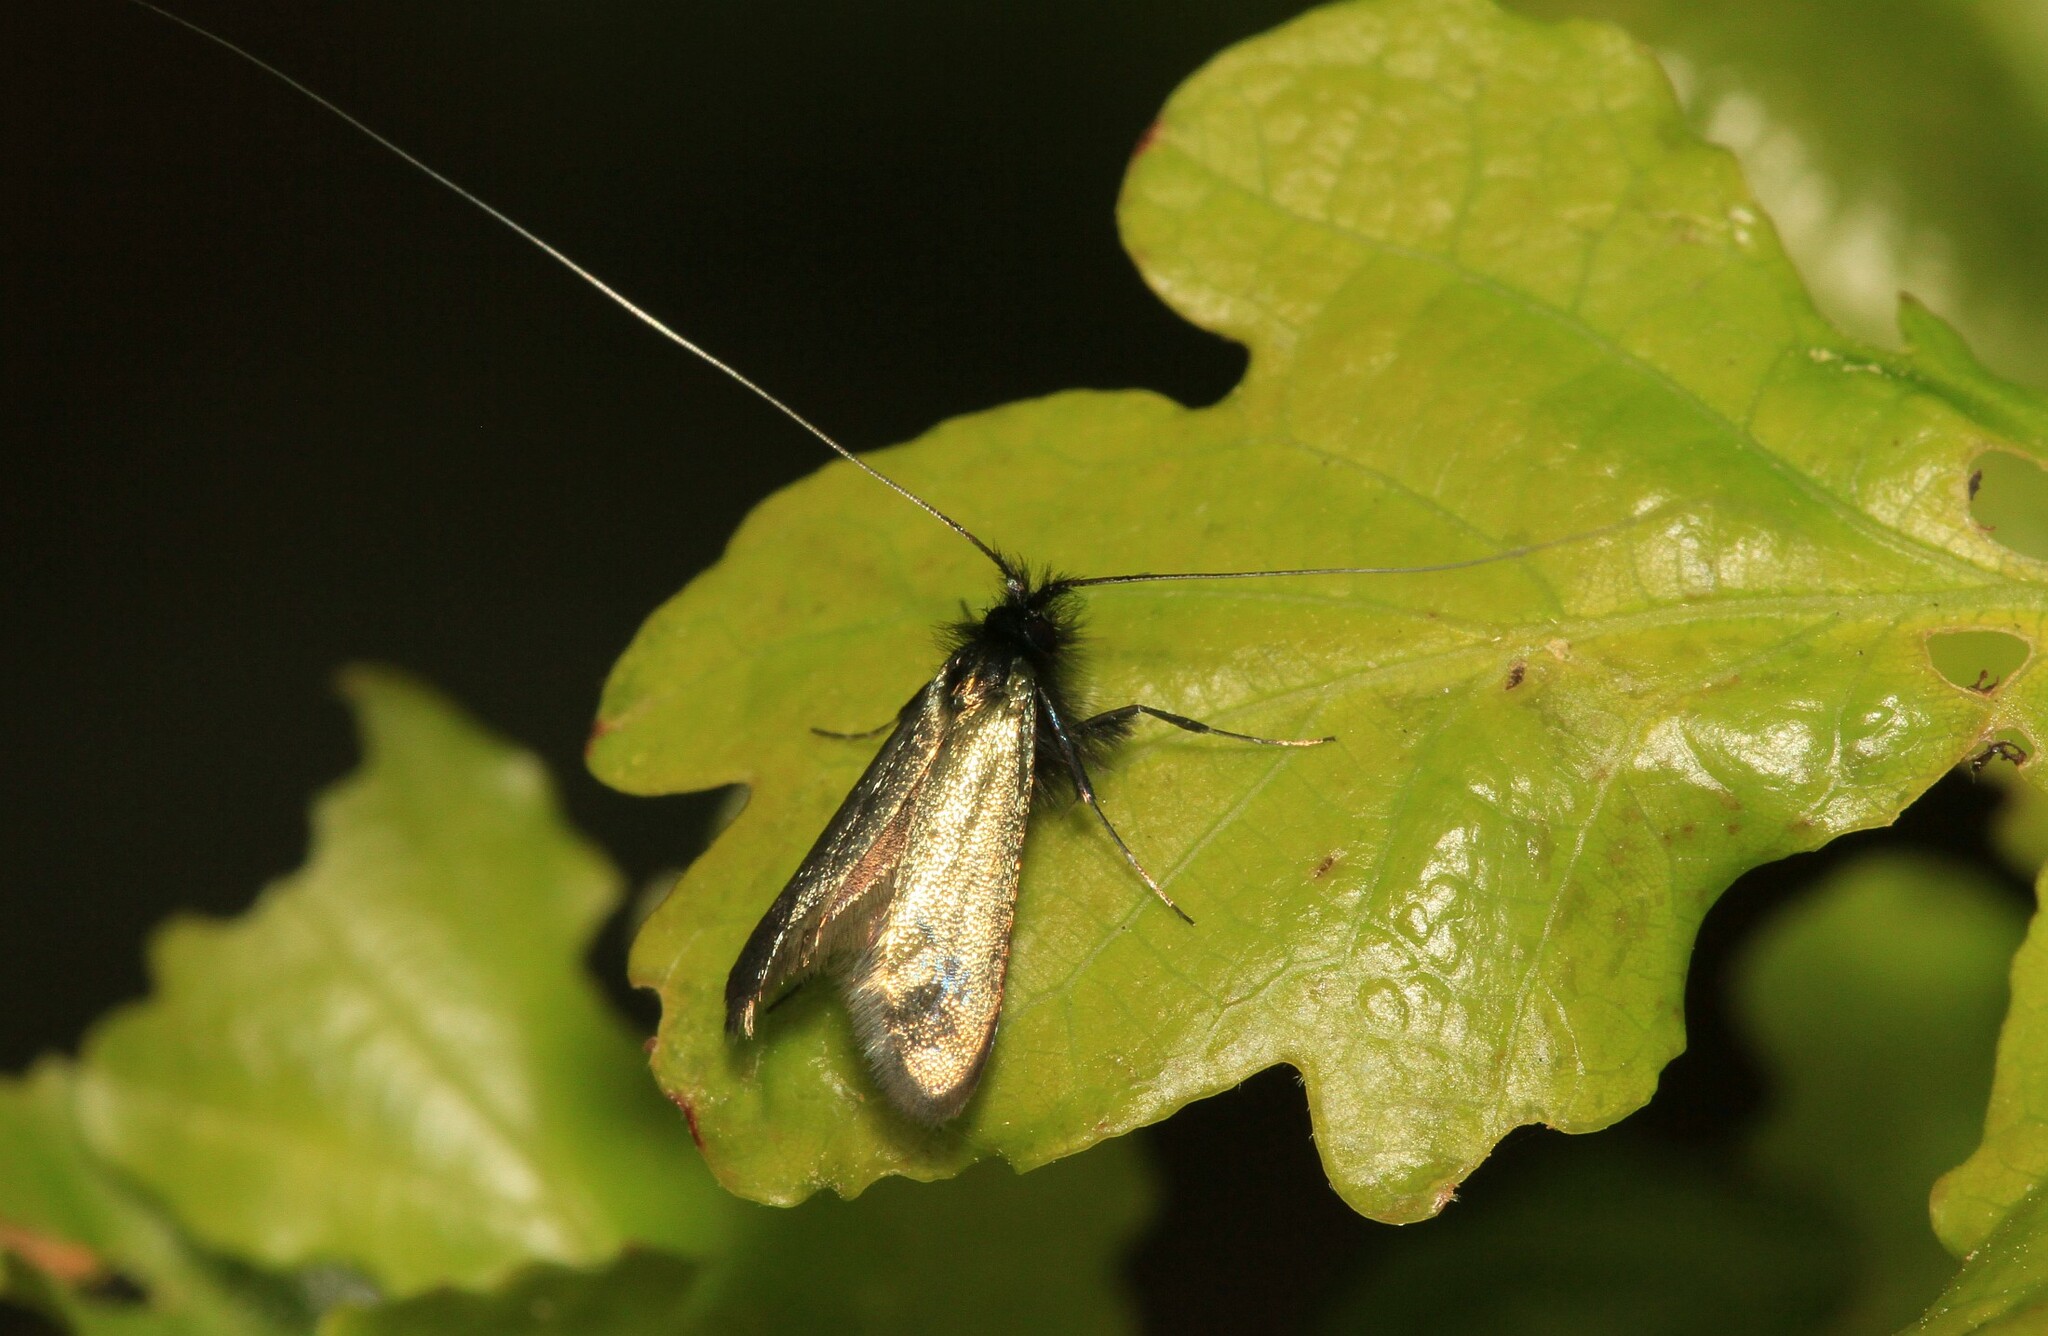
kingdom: Animalia
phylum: Arthropoda
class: Insecta
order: Lepidoptera
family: Adelidae
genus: Adela
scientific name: Adela viridella
